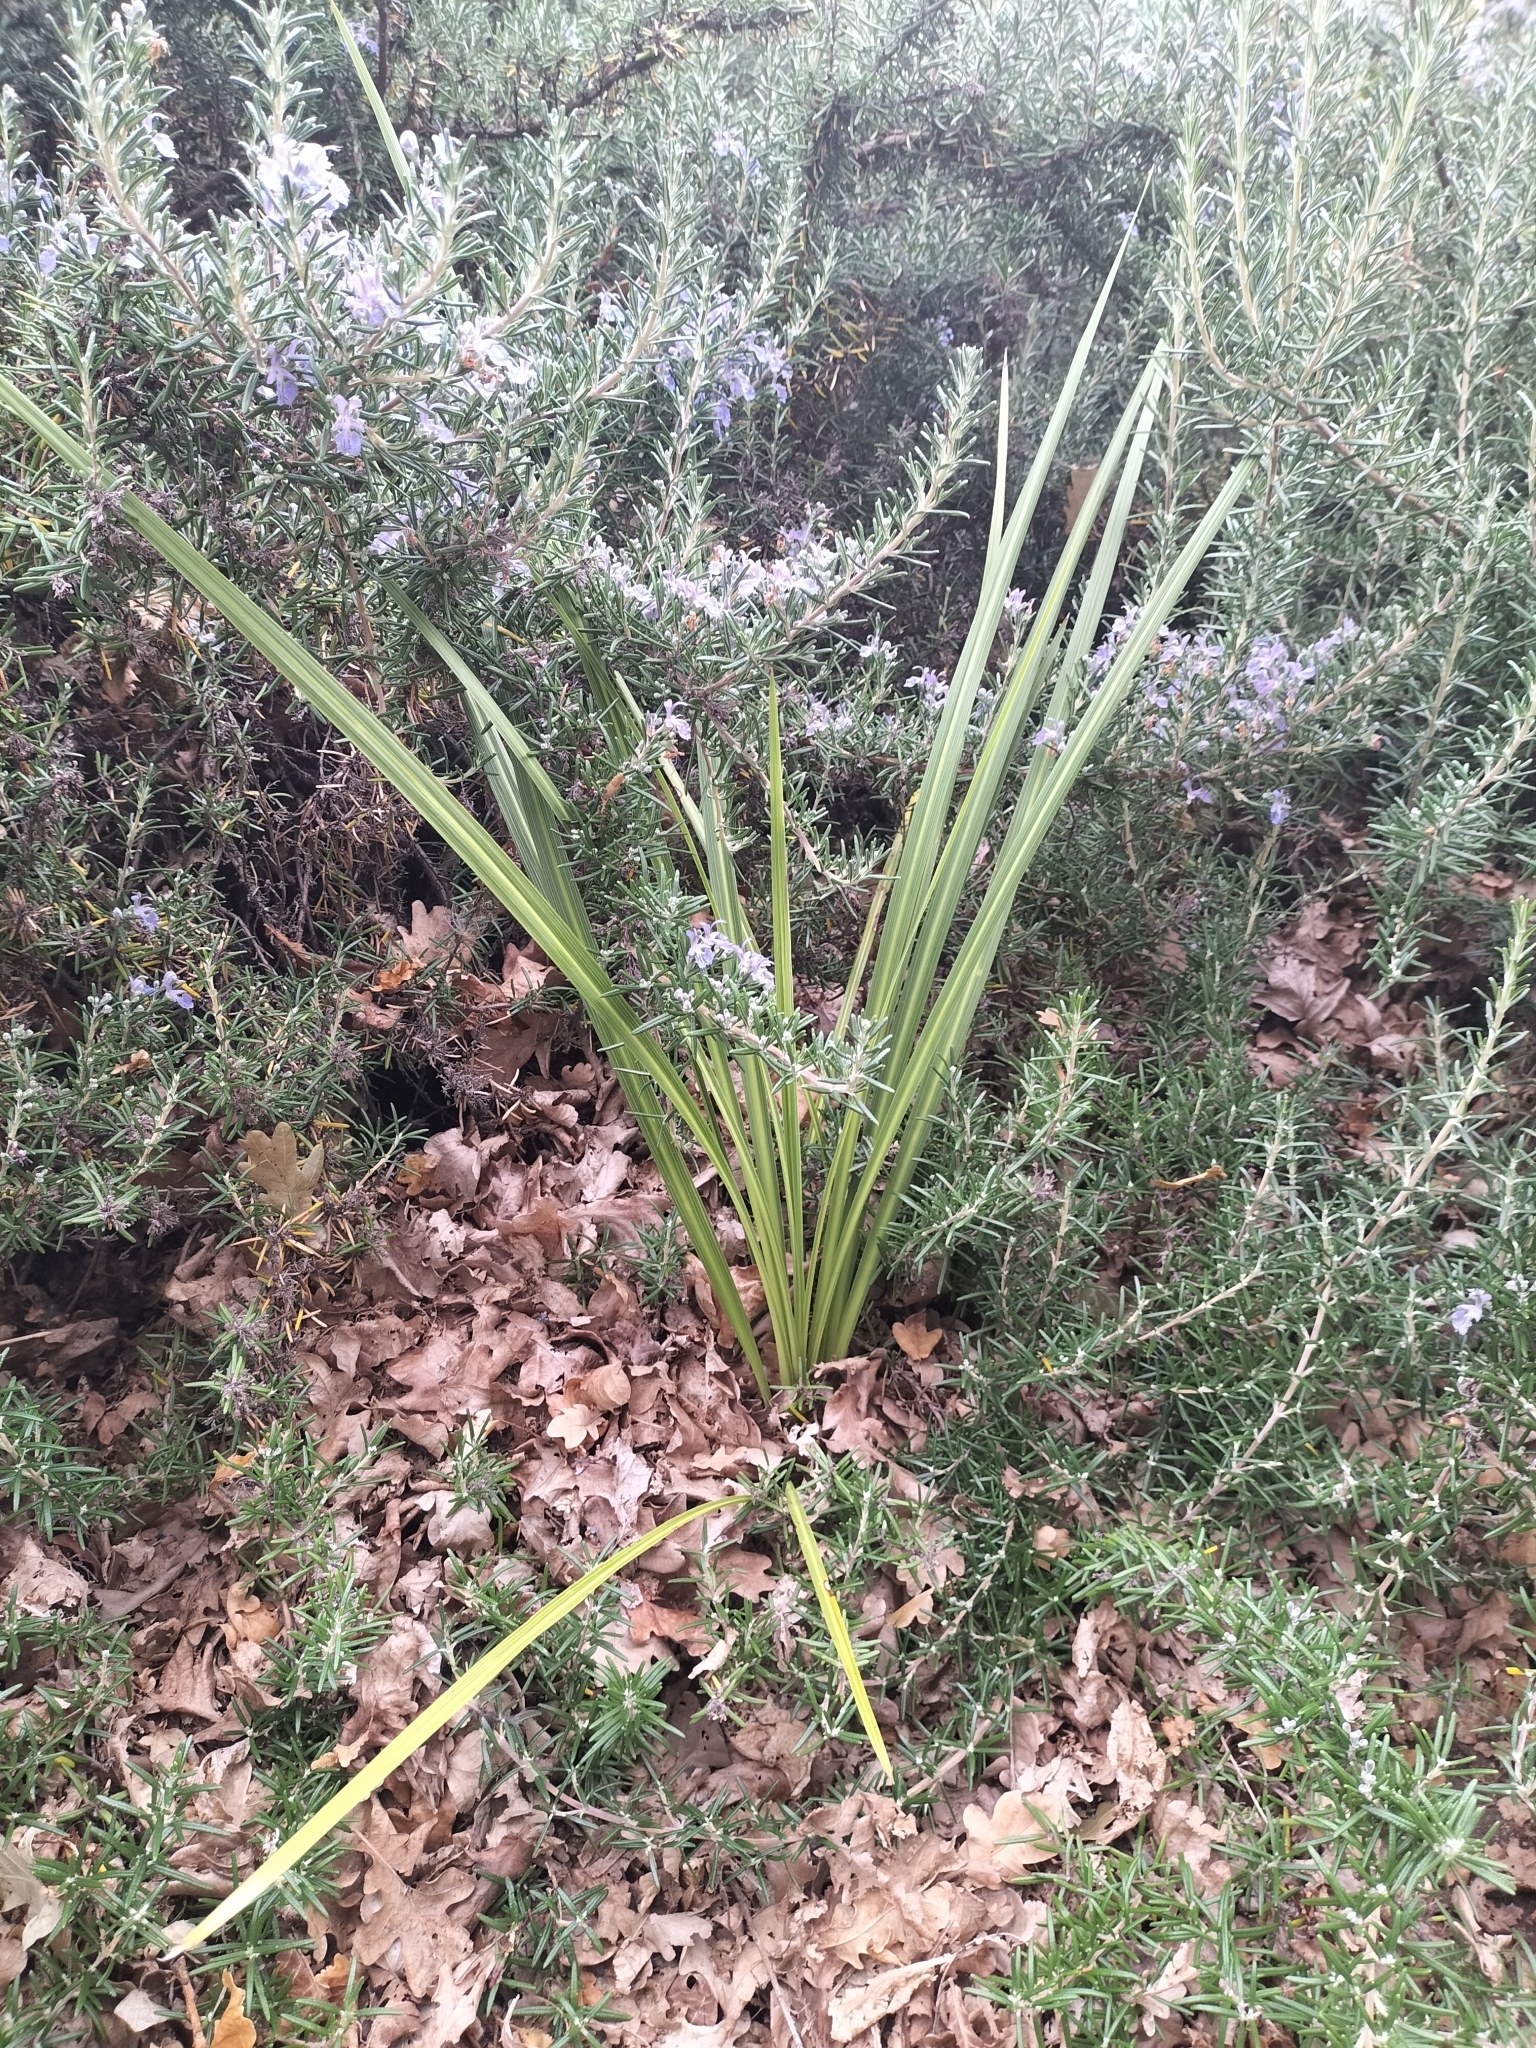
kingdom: Plantae
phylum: Tracheophyta
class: Liliopsida
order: Asparagales
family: Asparagaceae
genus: Cordyline
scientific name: Cordyline australis
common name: Cabbage-palm
